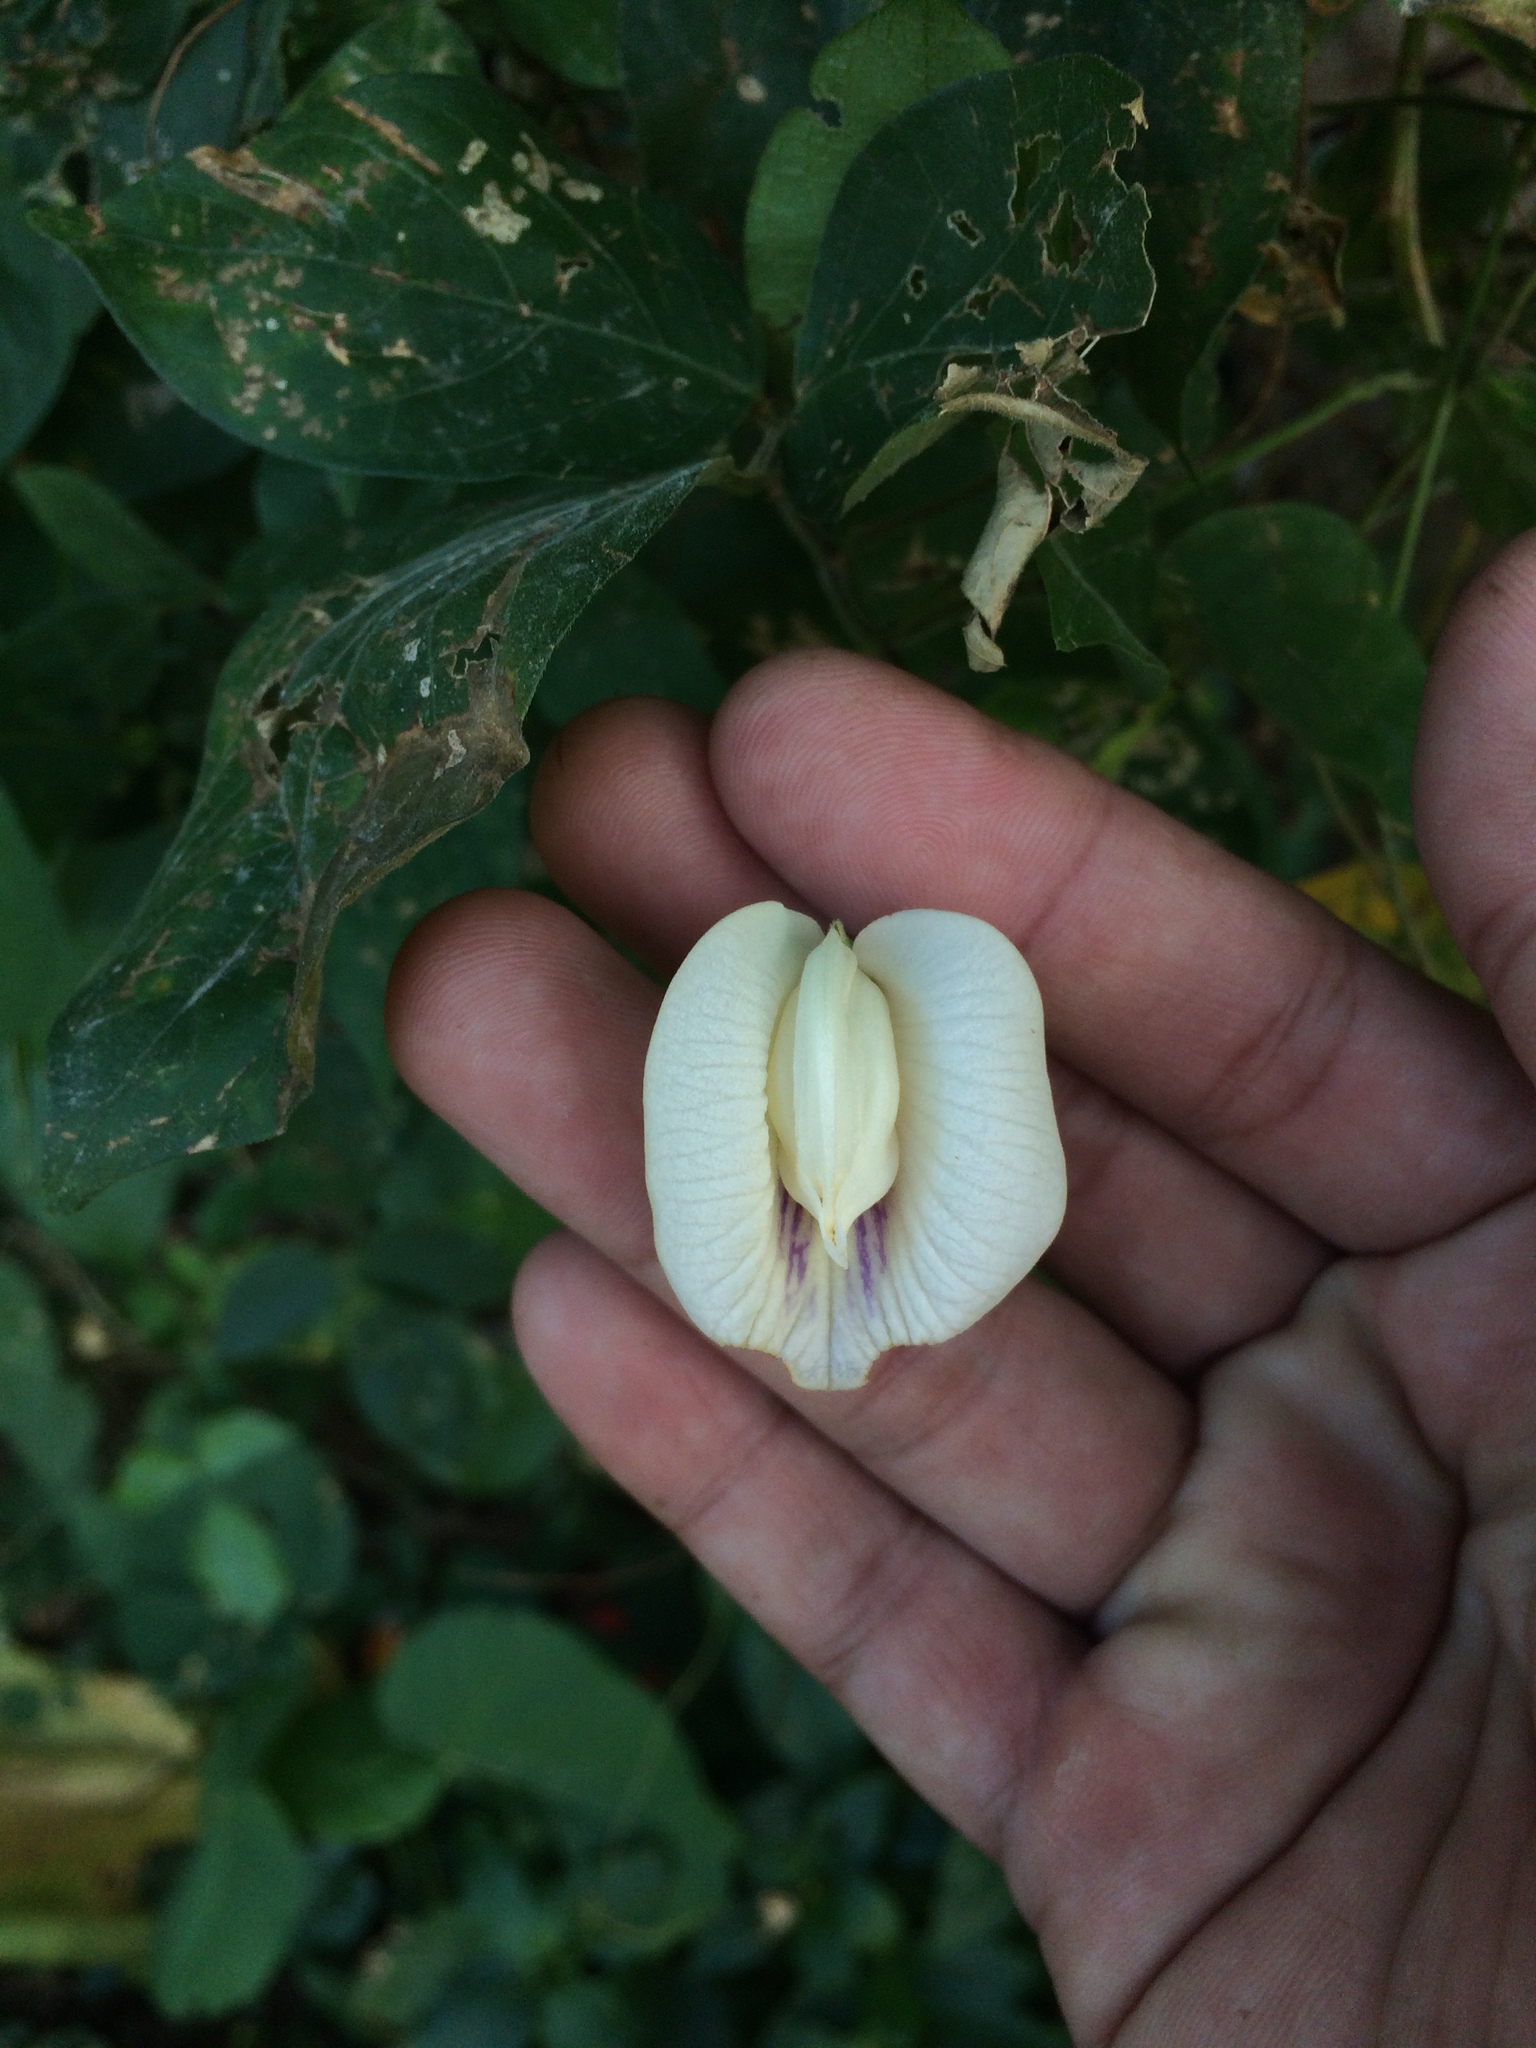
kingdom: Plantae
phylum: Tracheophyta
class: Magnoliopsida
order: Fabales
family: Fabaceae
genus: Centrosema
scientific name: Centrosema pubescens
